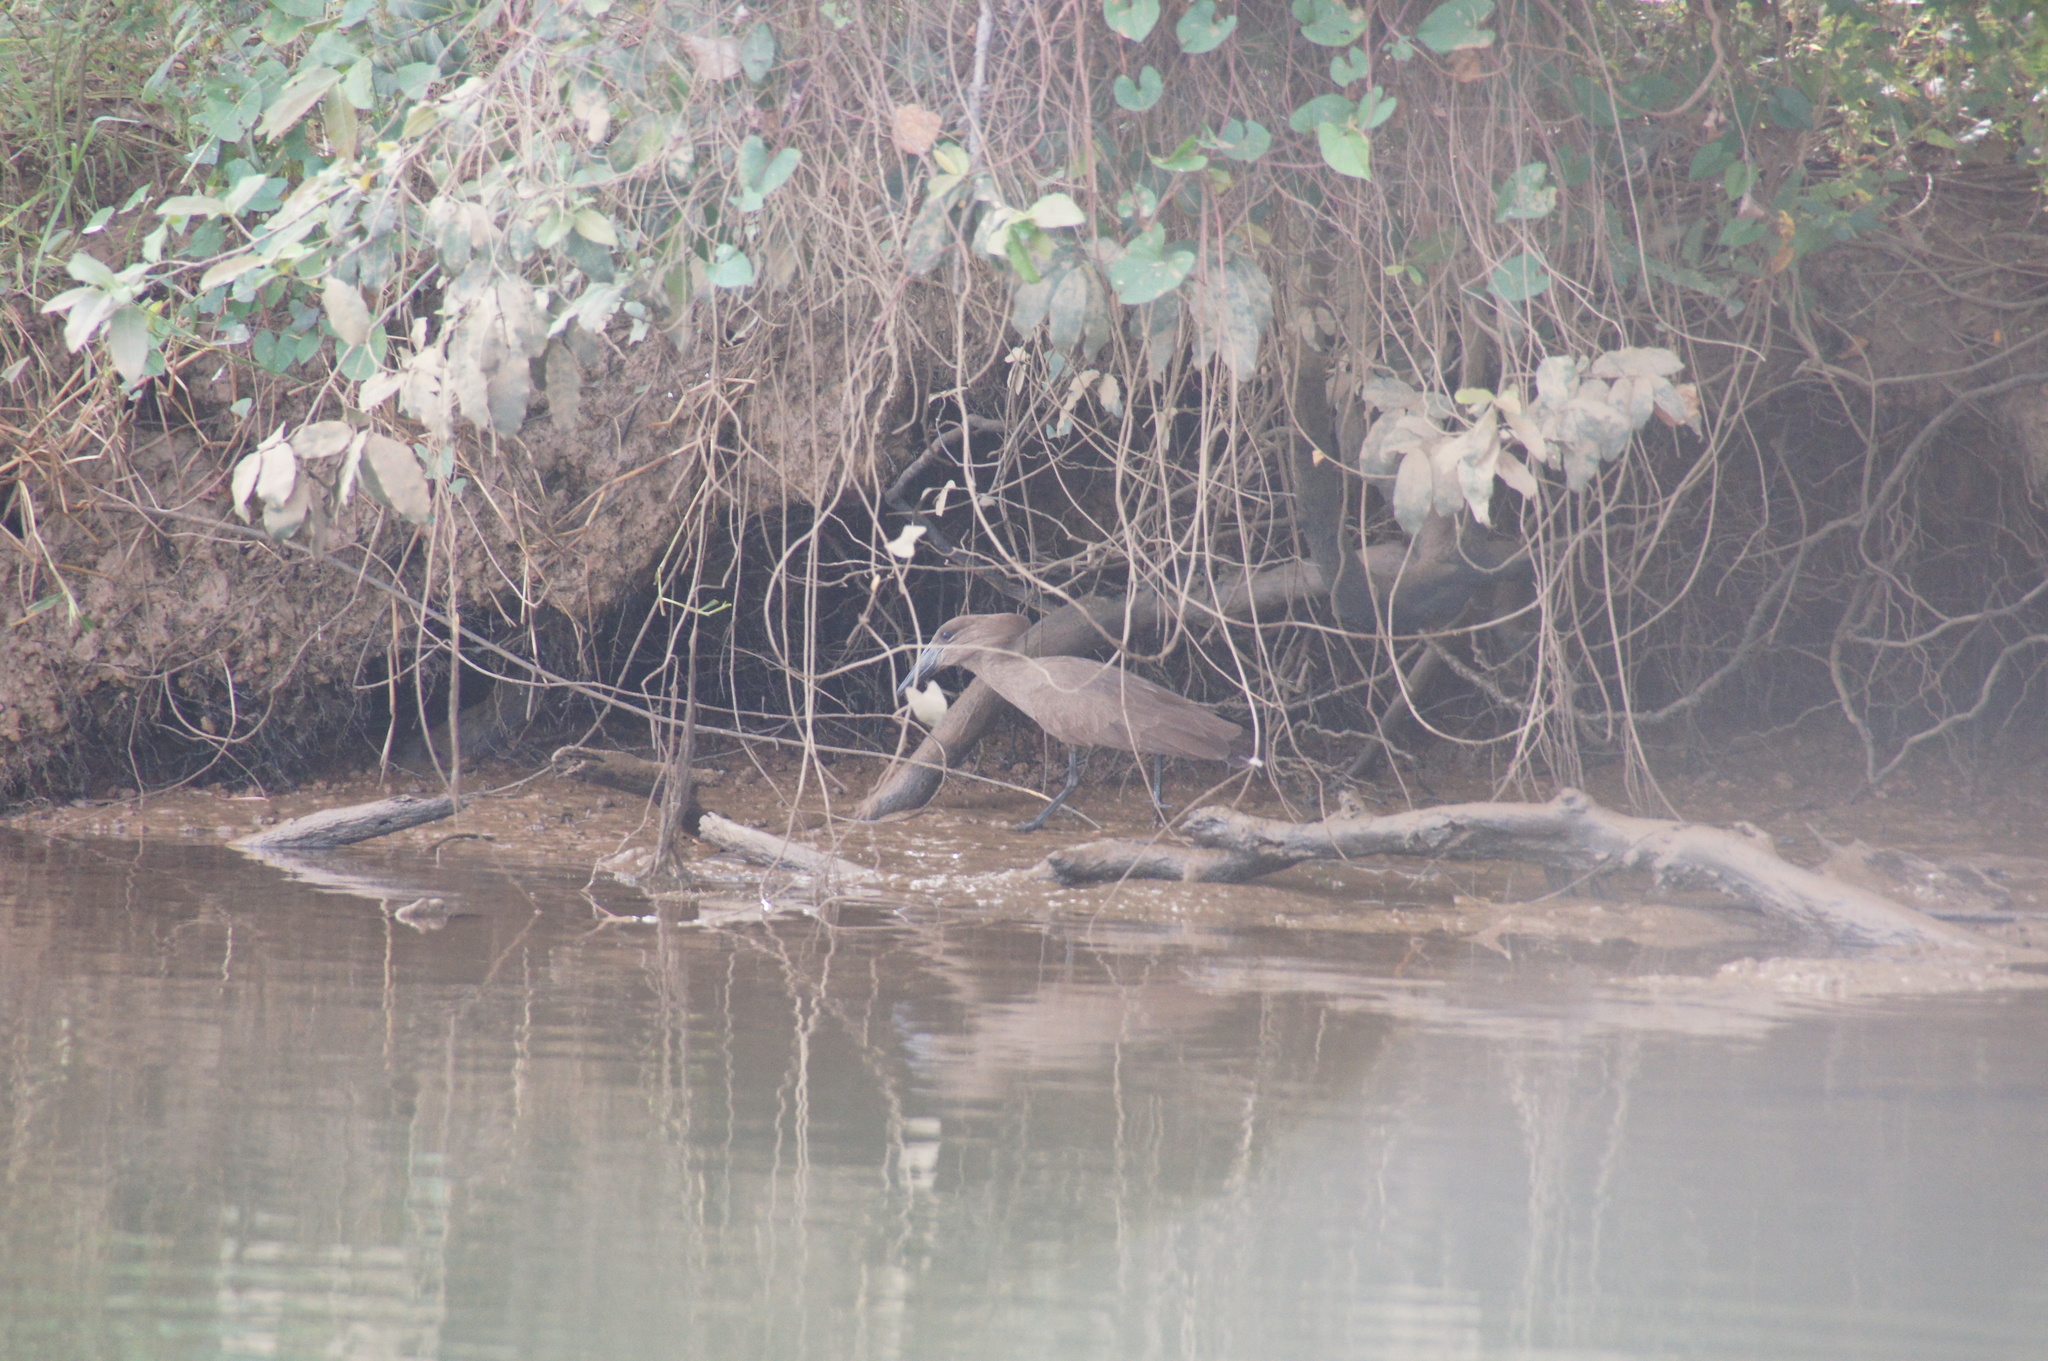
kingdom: Animalia
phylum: Chordata
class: Aves
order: Pelecaniformes
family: Scopidae
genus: Scopus
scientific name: Scopus umbretta
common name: Hamerkop
